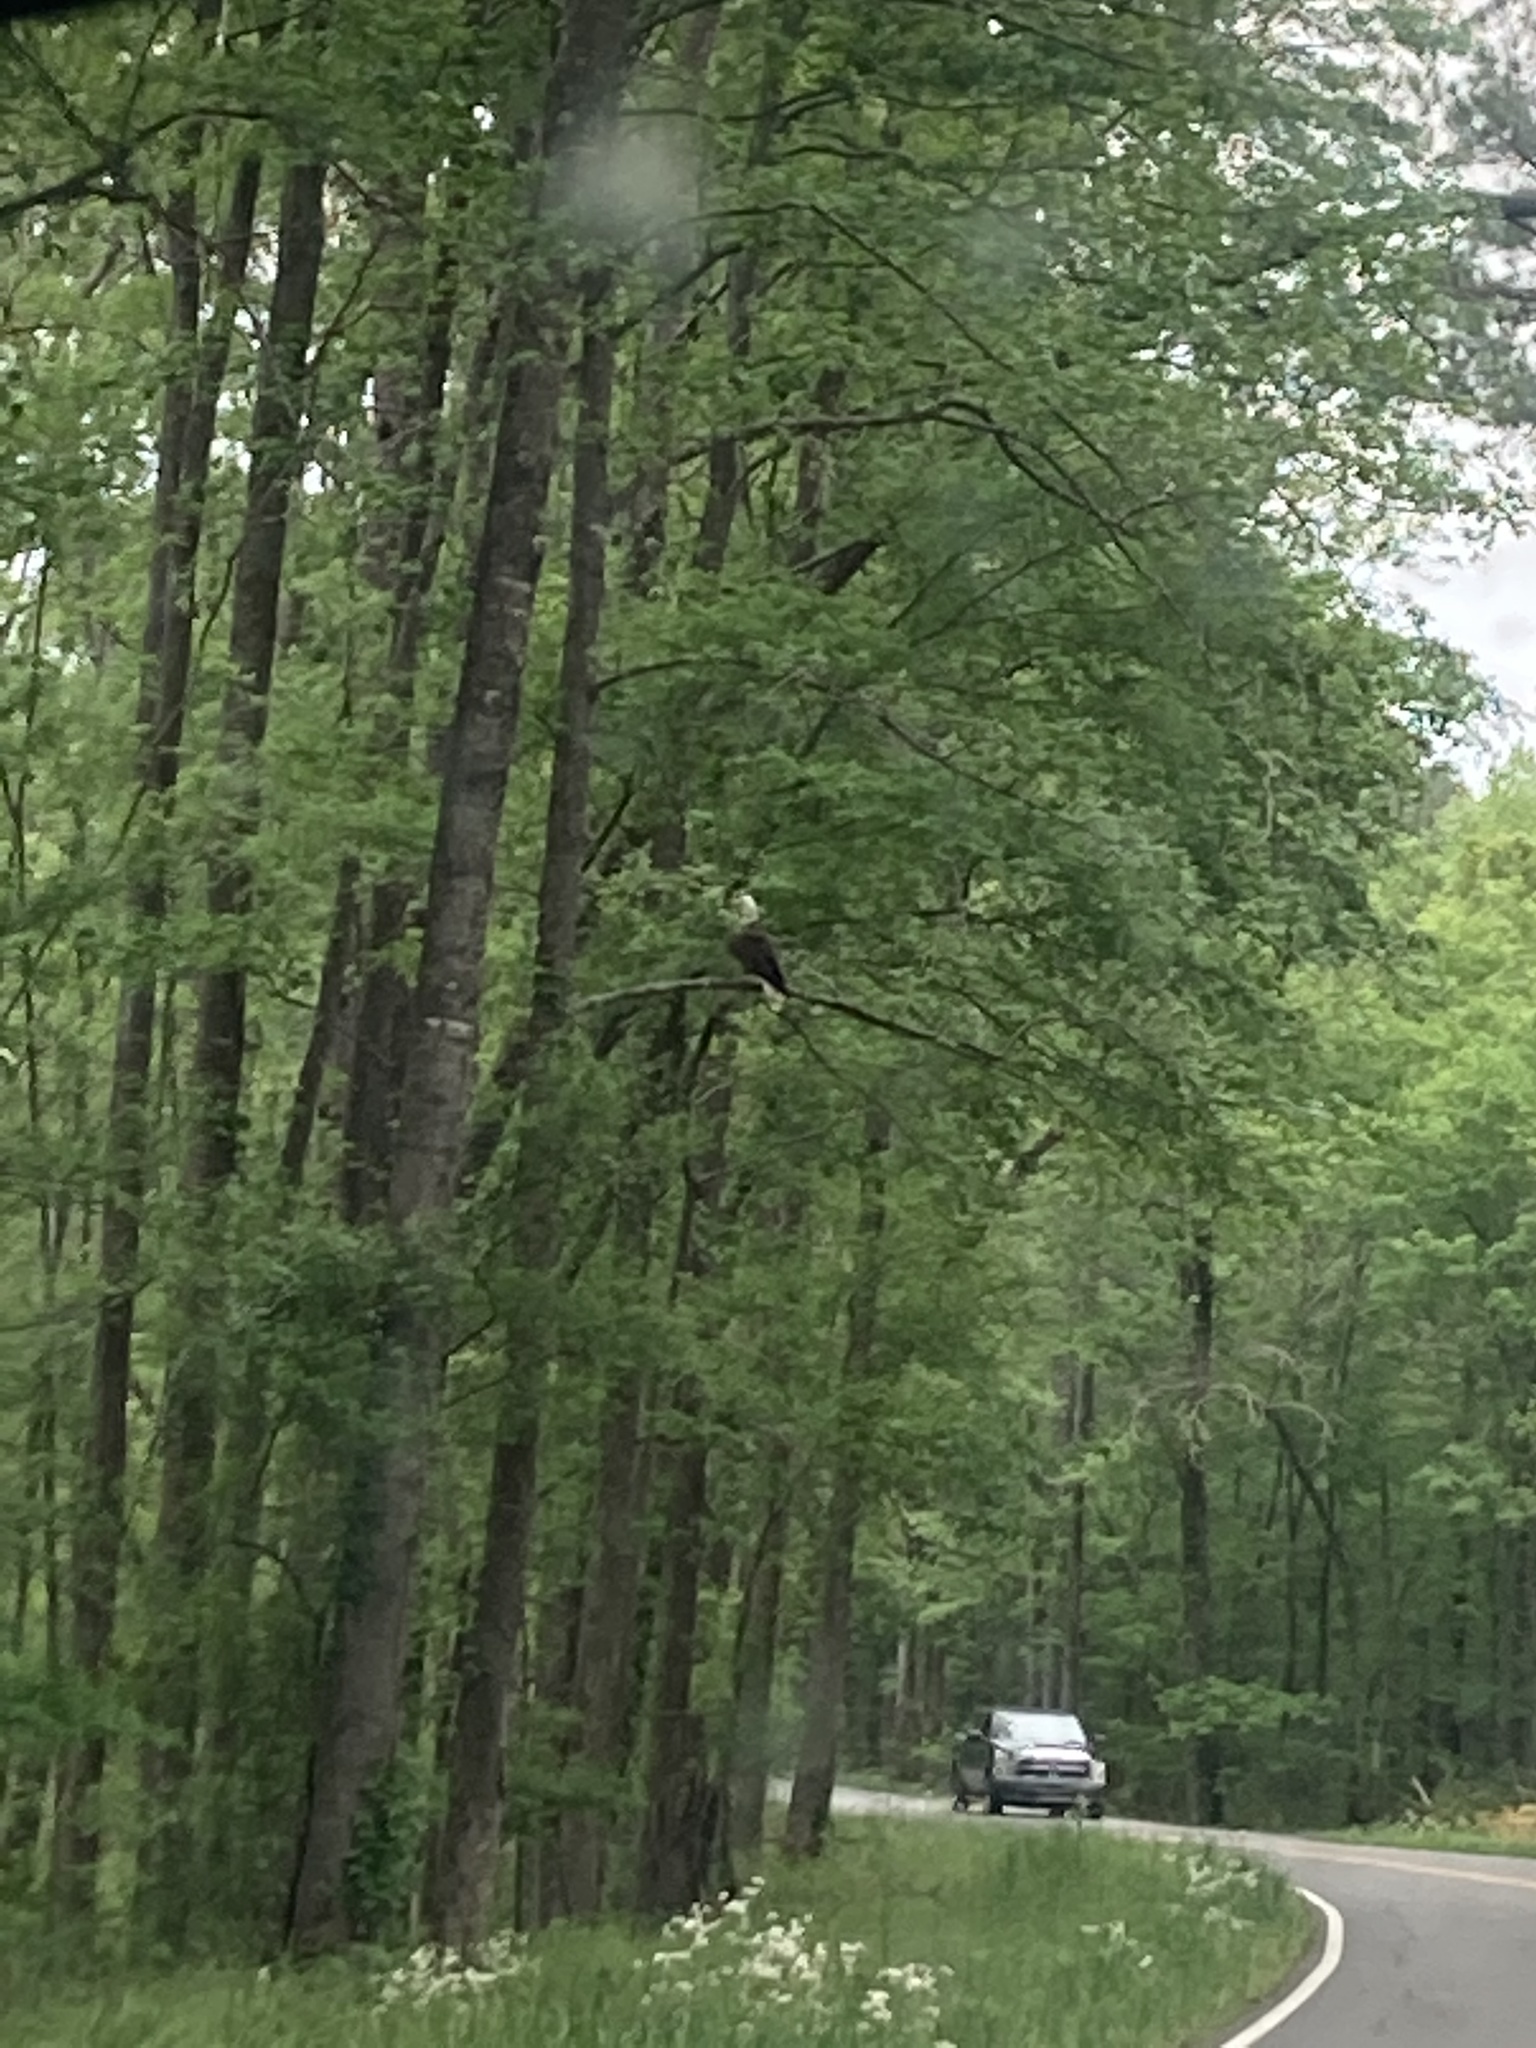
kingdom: Animalia
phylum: Chordata
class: Aves
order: Accipitriformes
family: Accipitridae
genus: Haliaeetus
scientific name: Haliaeetus leucocephalus
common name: Bald eagle
